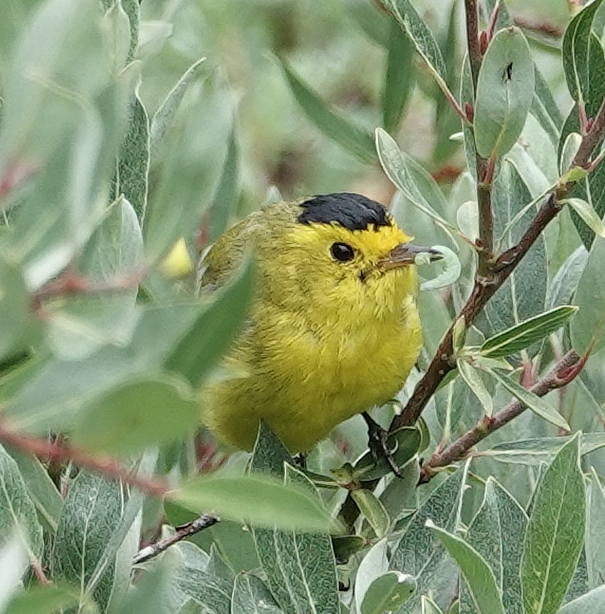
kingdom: Animalia
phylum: Chordata
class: Aves
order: Passeriformes
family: Parulidae
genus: Cardellina
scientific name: Cardellina pusilla
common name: Wilson's warbler
